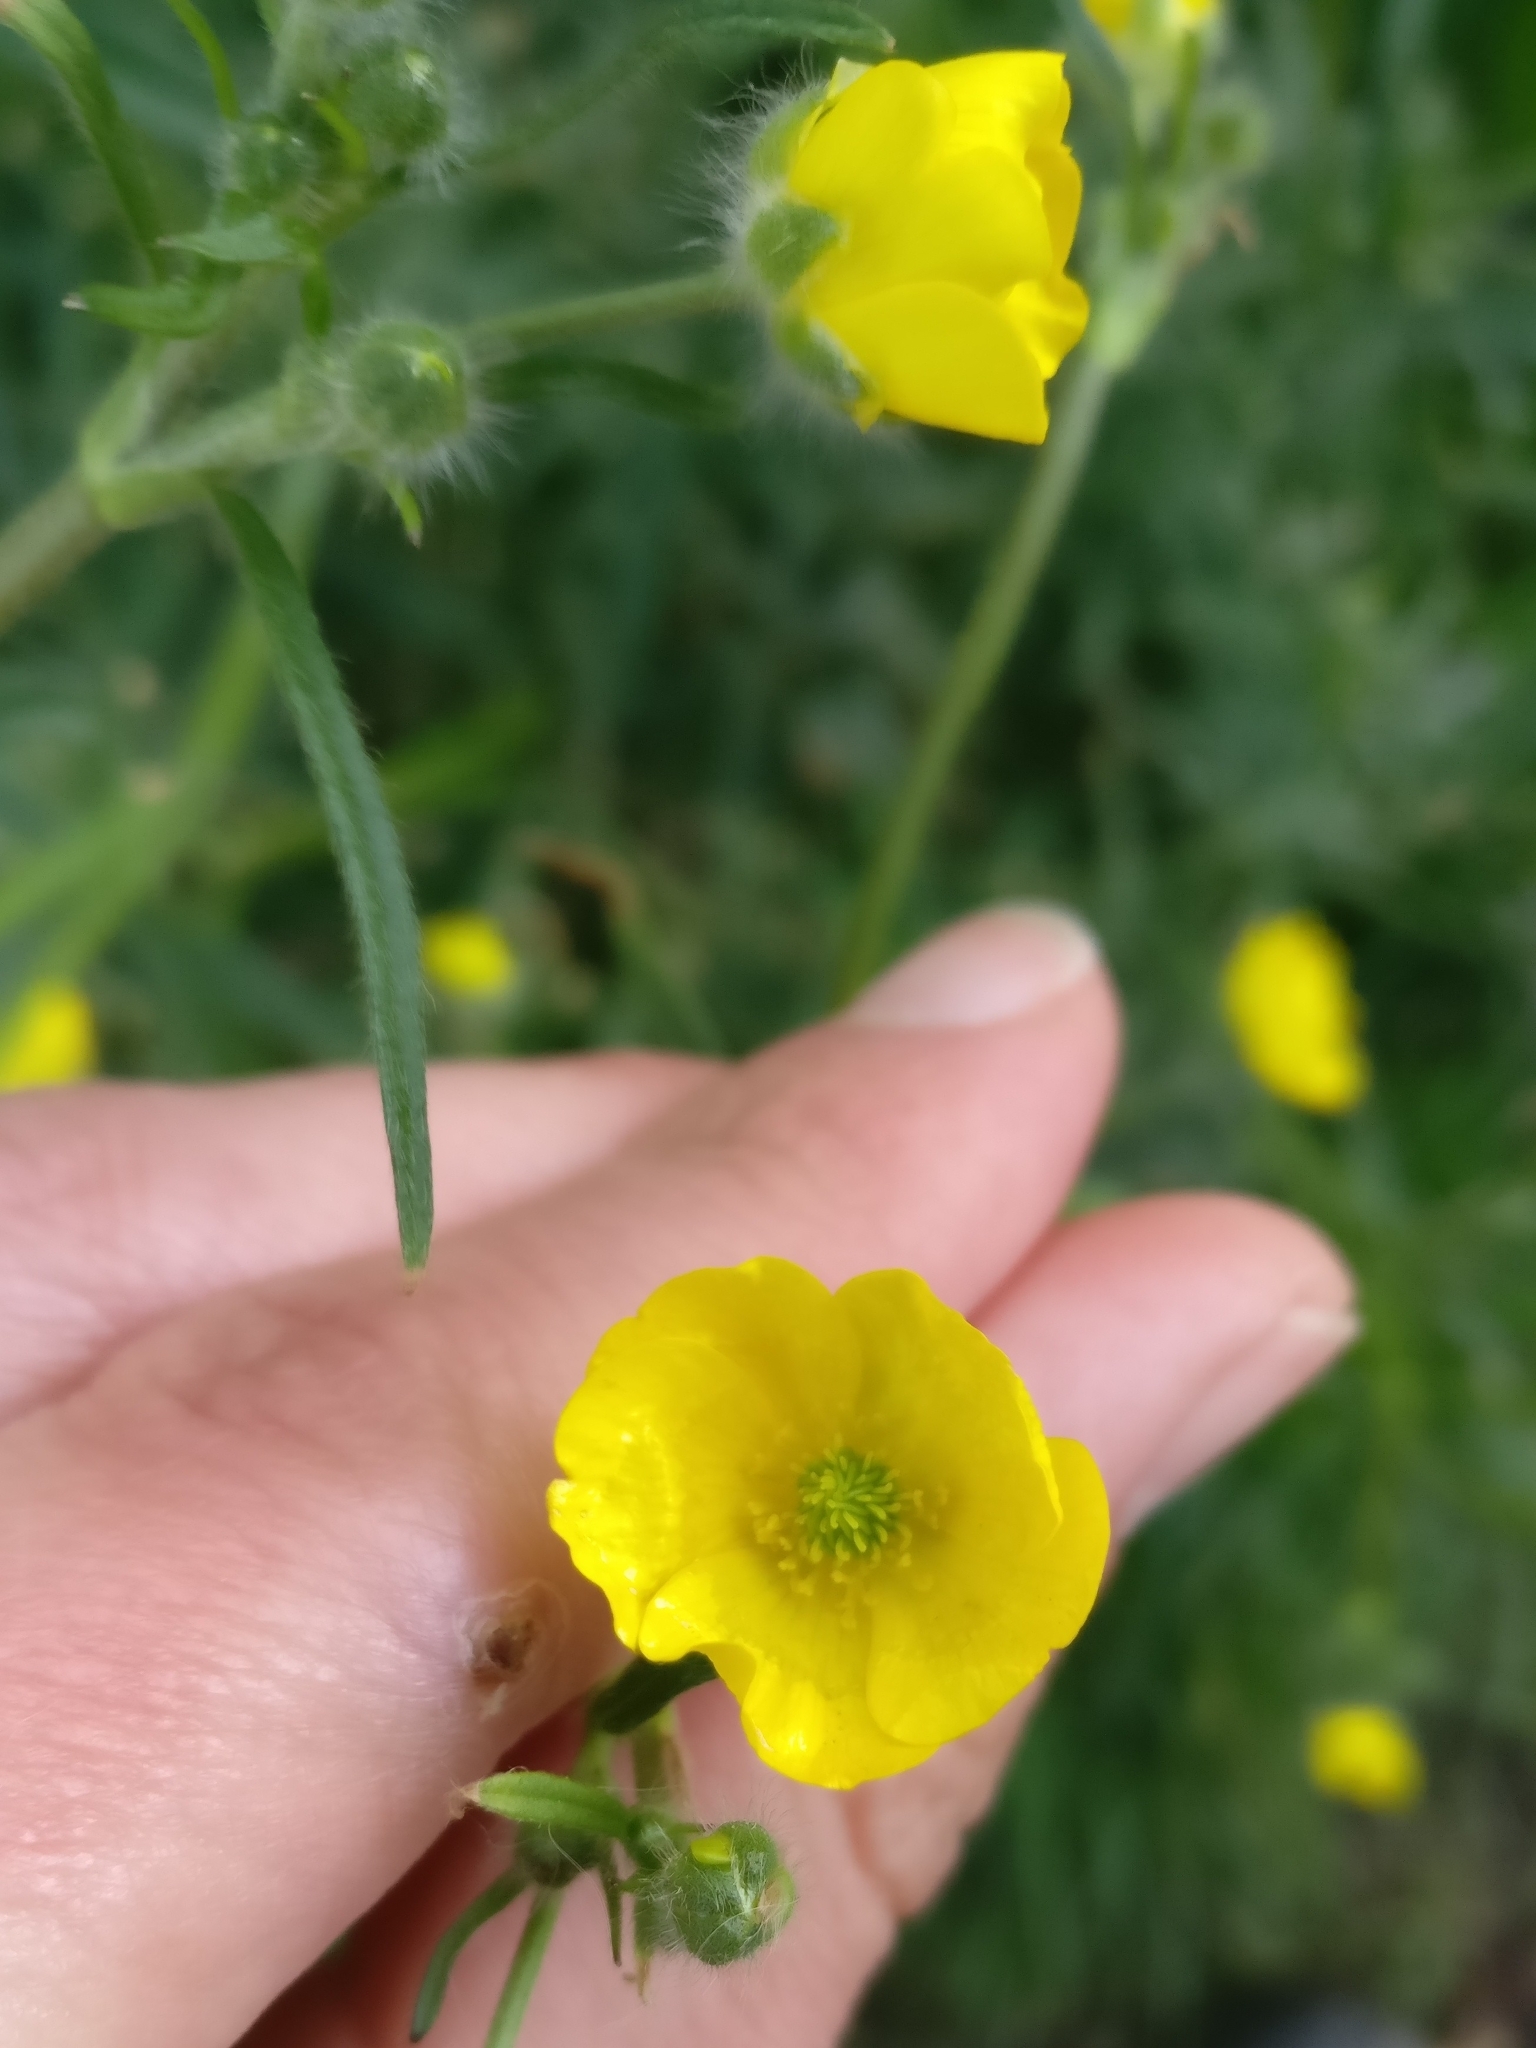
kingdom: Plantae
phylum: Tracheophyta
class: Magnoliopsida
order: Ranunculales
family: Ranunculaceae
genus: Ranunculus
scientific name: Ranunculus acris
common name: Meadow buttercup
